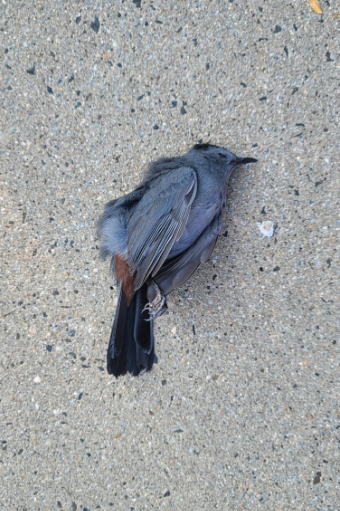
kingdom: Animalia
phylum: Chordata
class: Aves
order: Passeriformes
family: Mimidae
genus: Dumetella
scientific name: Dumetella carolinensis
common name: Gray catbird
